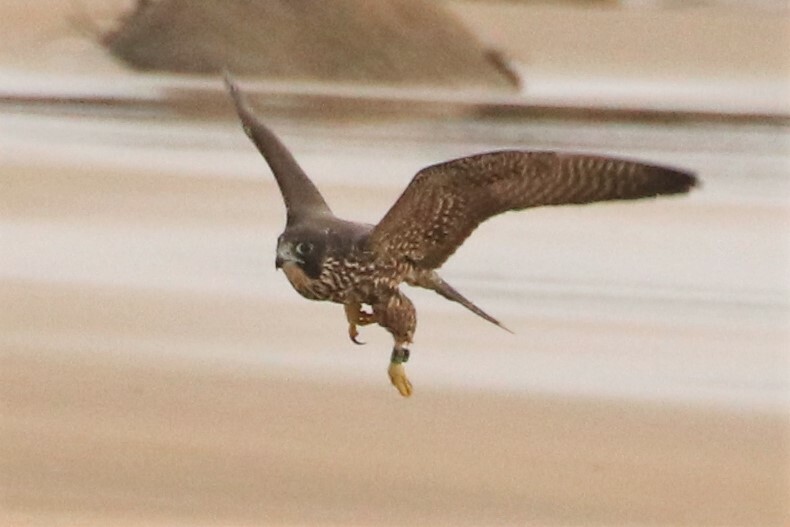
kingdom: Animalia
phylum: Chordata
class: Aves
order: Falconiformes
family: Falconidae
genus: Falco
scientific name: Falco peregrinus
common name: Peregrine falcon
